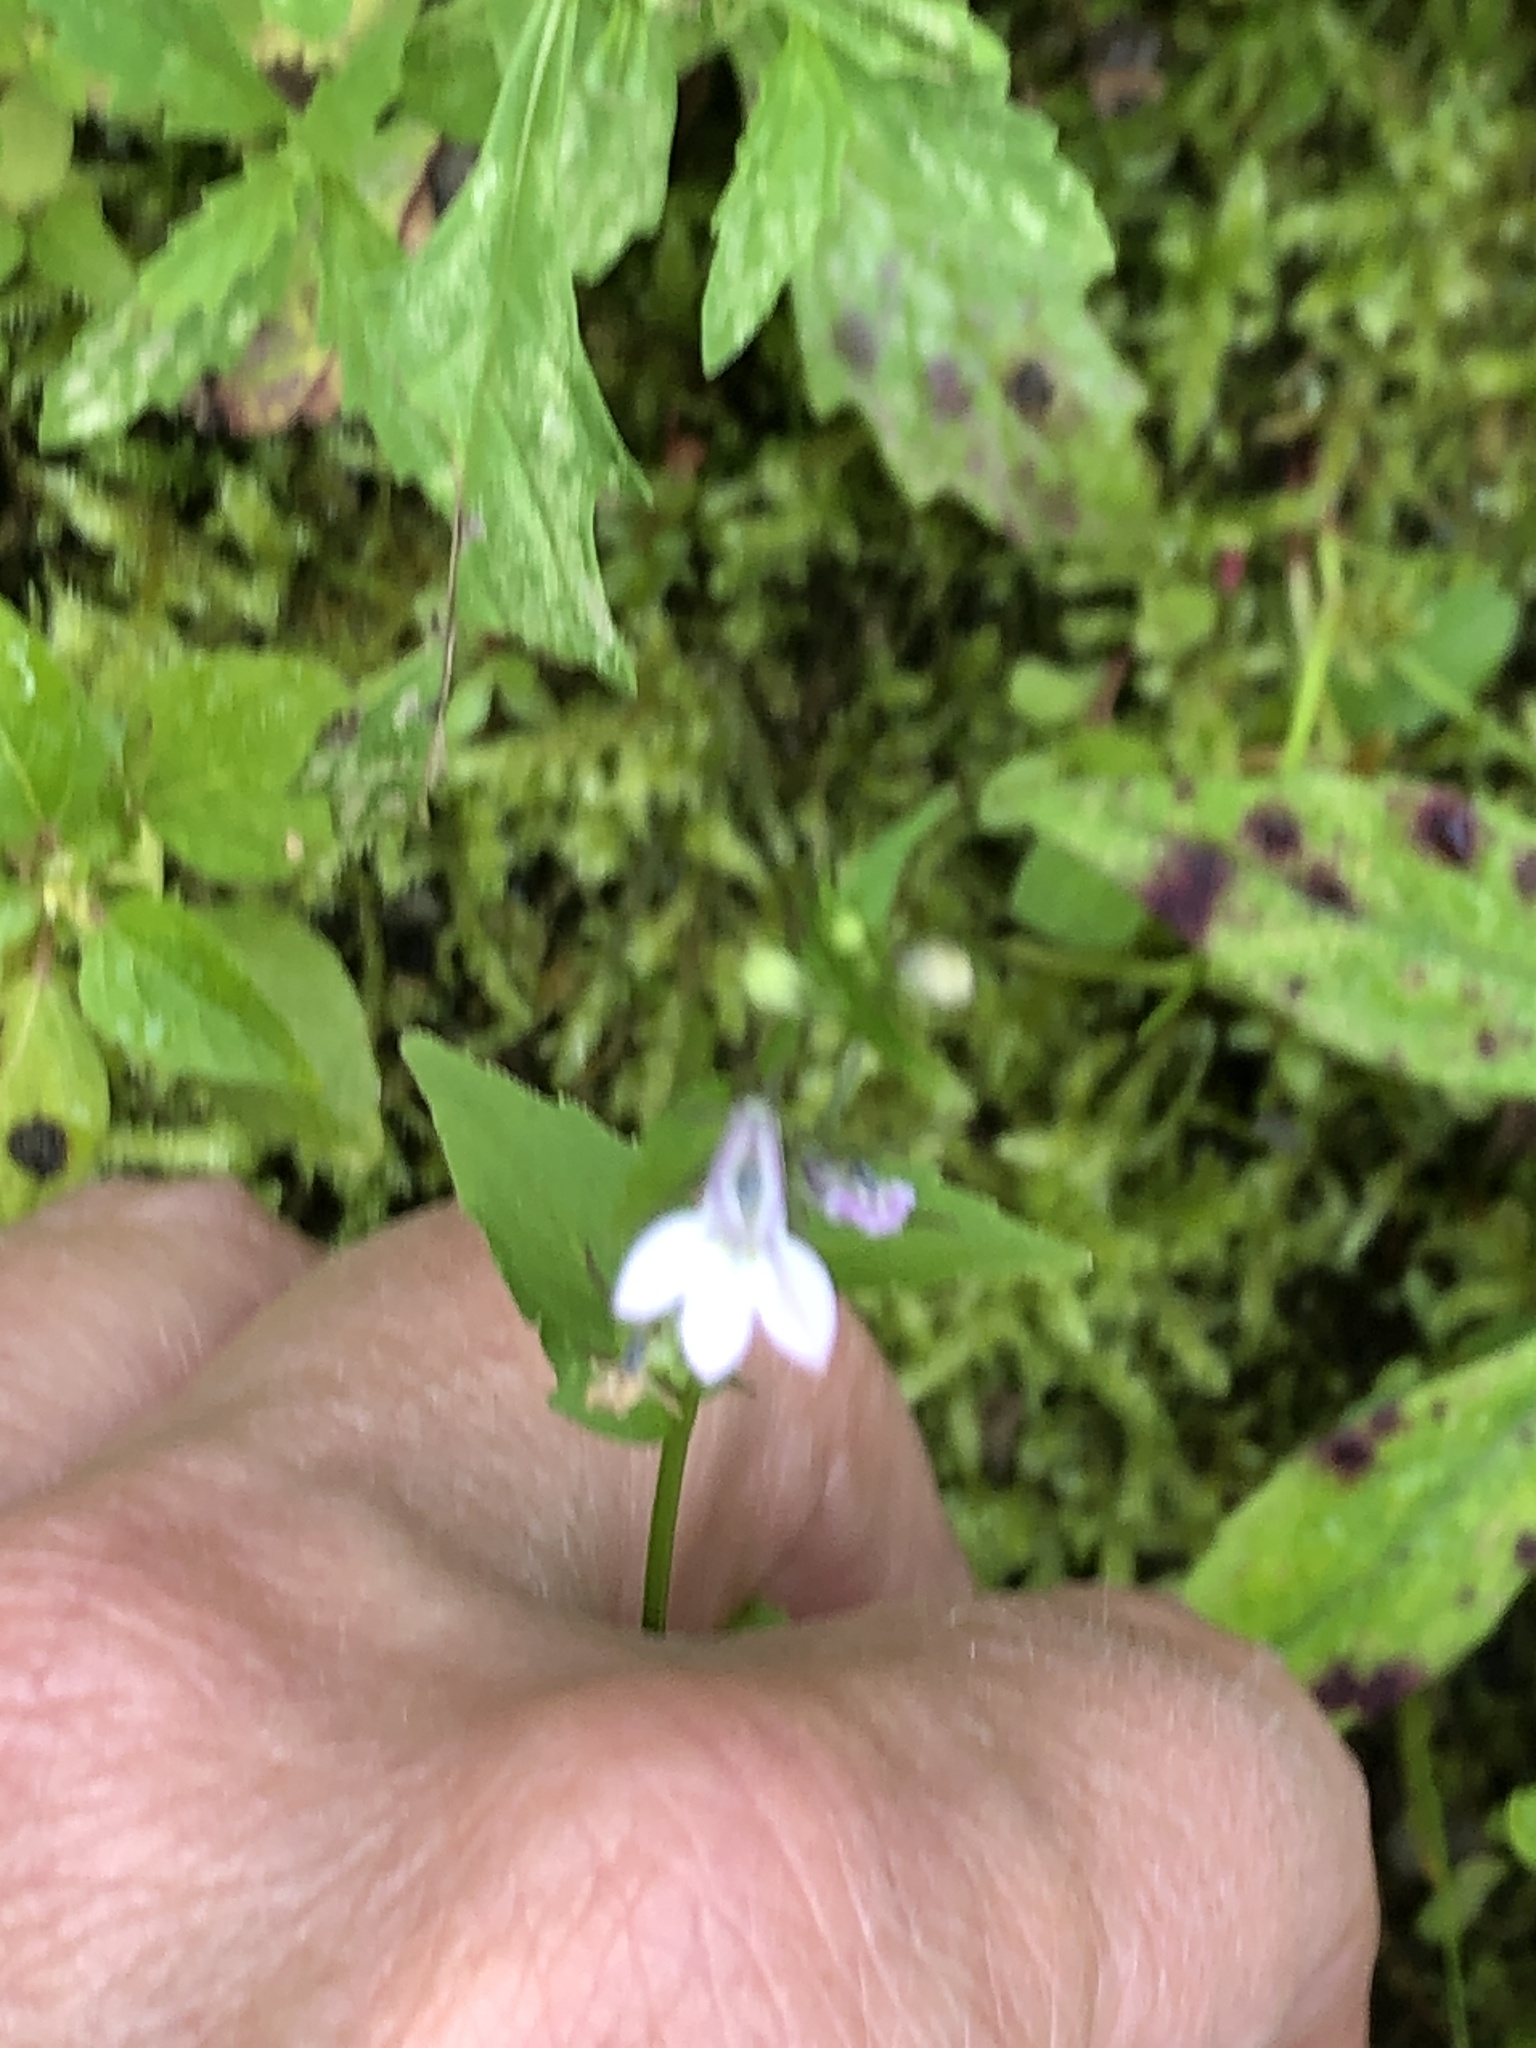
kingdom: Plantae
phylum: Tracheophyta
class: Magnoliopsida
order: Asterales
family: Campanulaceae
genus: Lobelia
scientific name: Lobelia inflata
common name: Indian tobacco
